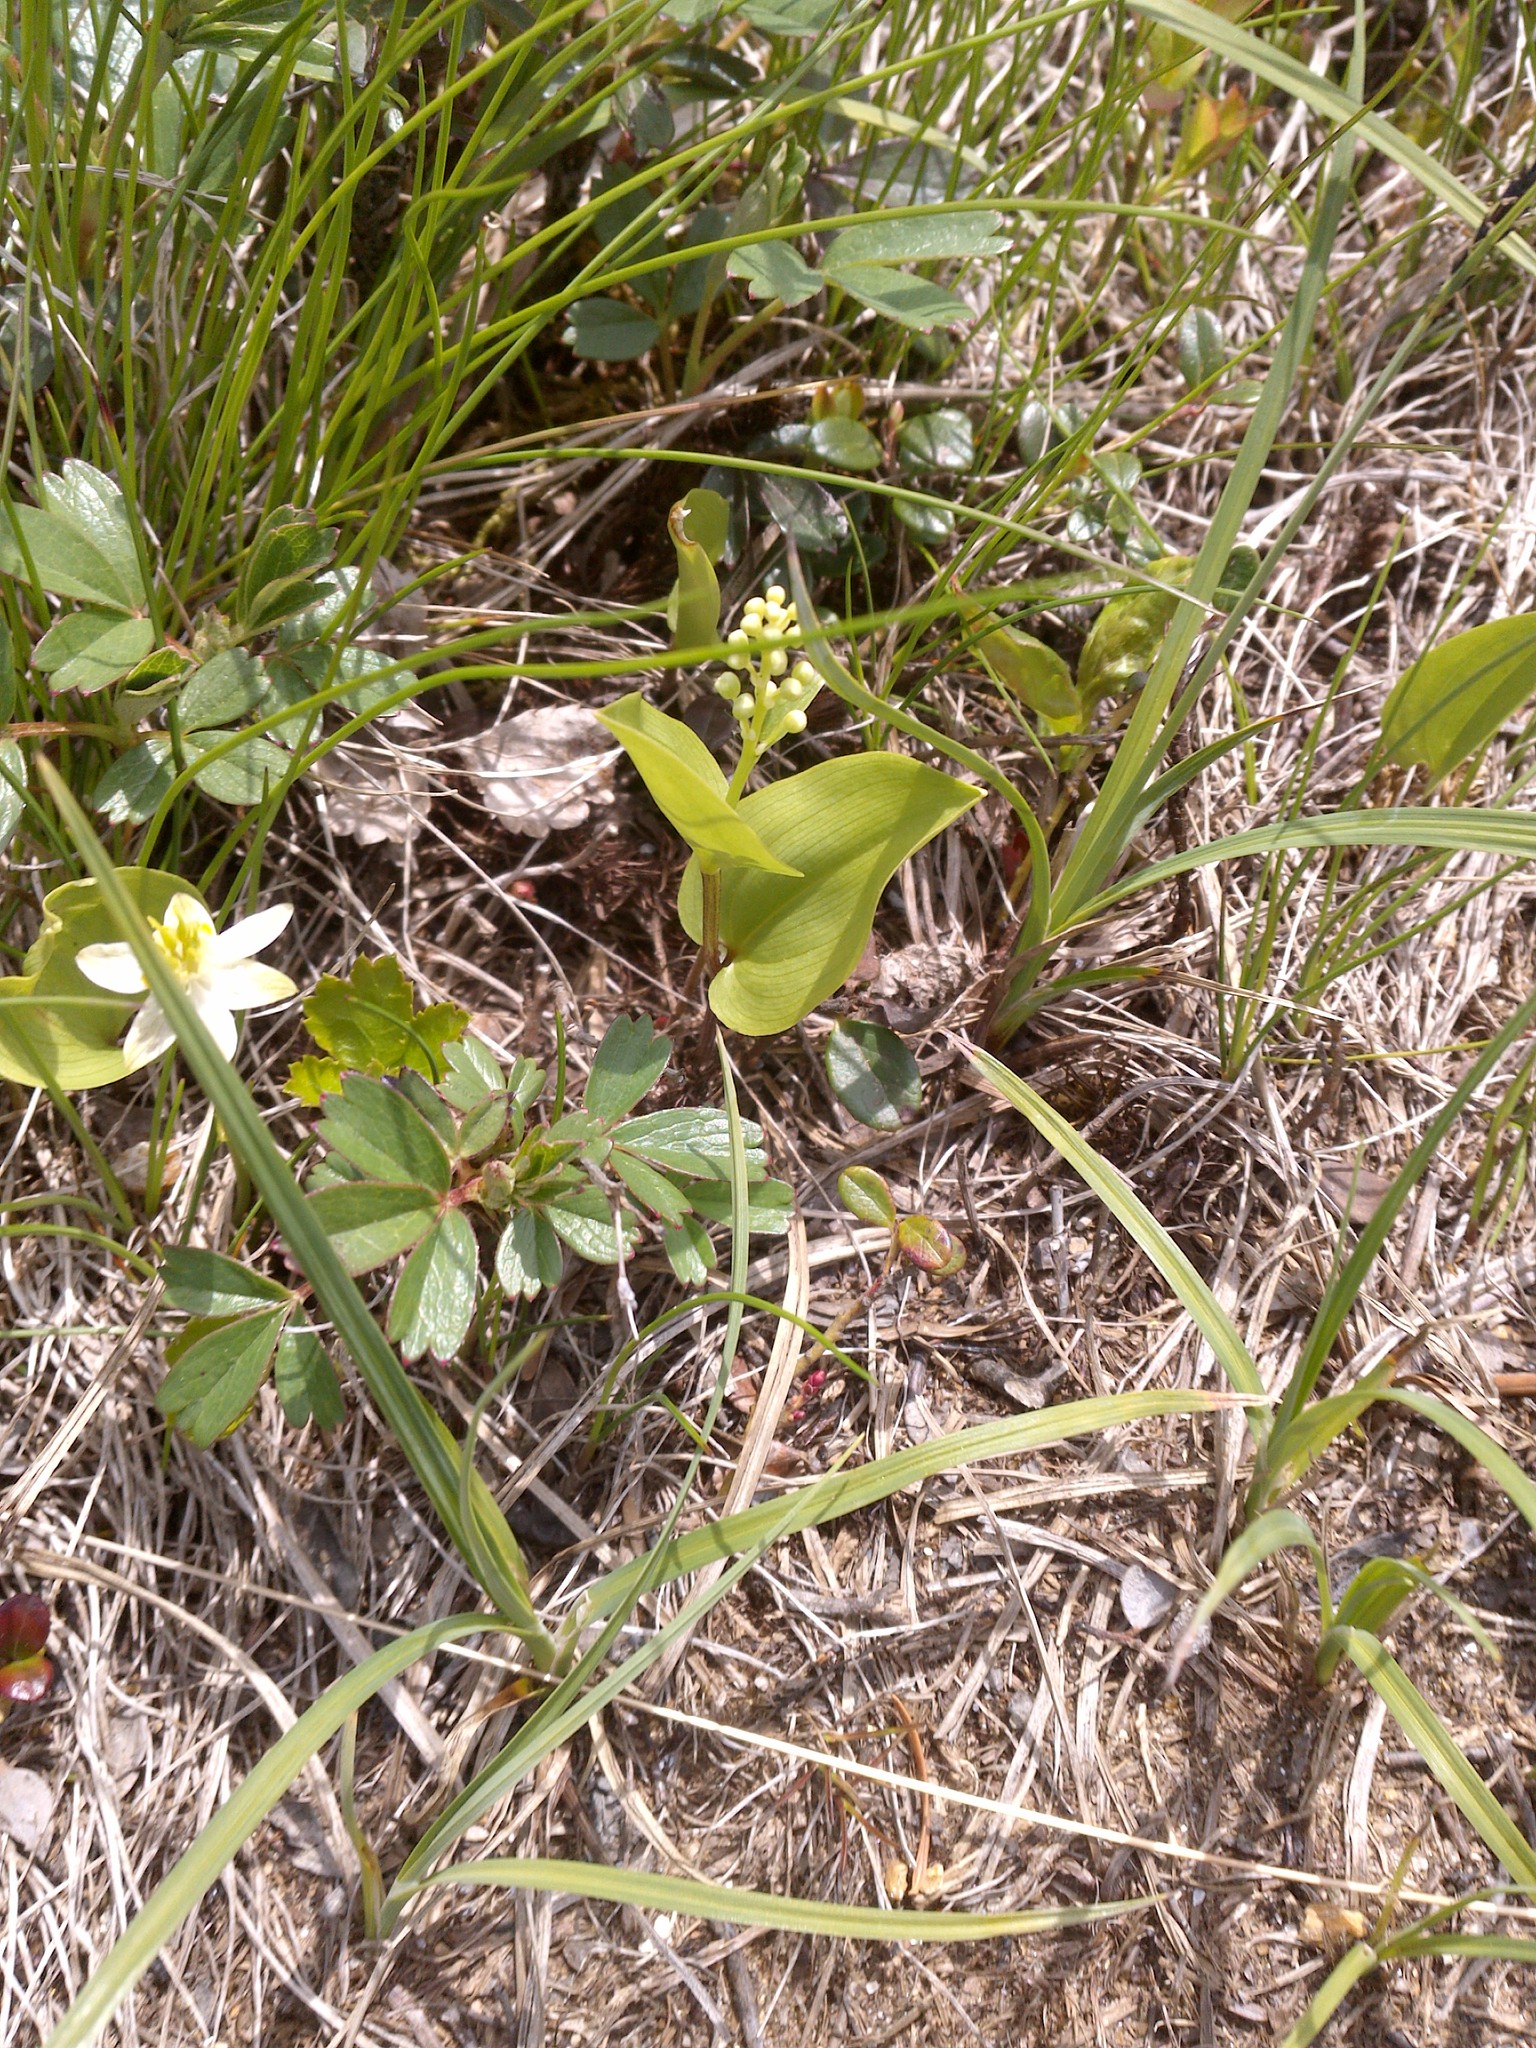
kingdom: Plantae
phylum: Tracheophyta
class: Liliopsida
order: Asparagales
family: Asparagaceae
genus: Maianthemum
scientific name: Maianthemum canadense
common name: False lily-of-the-valley
